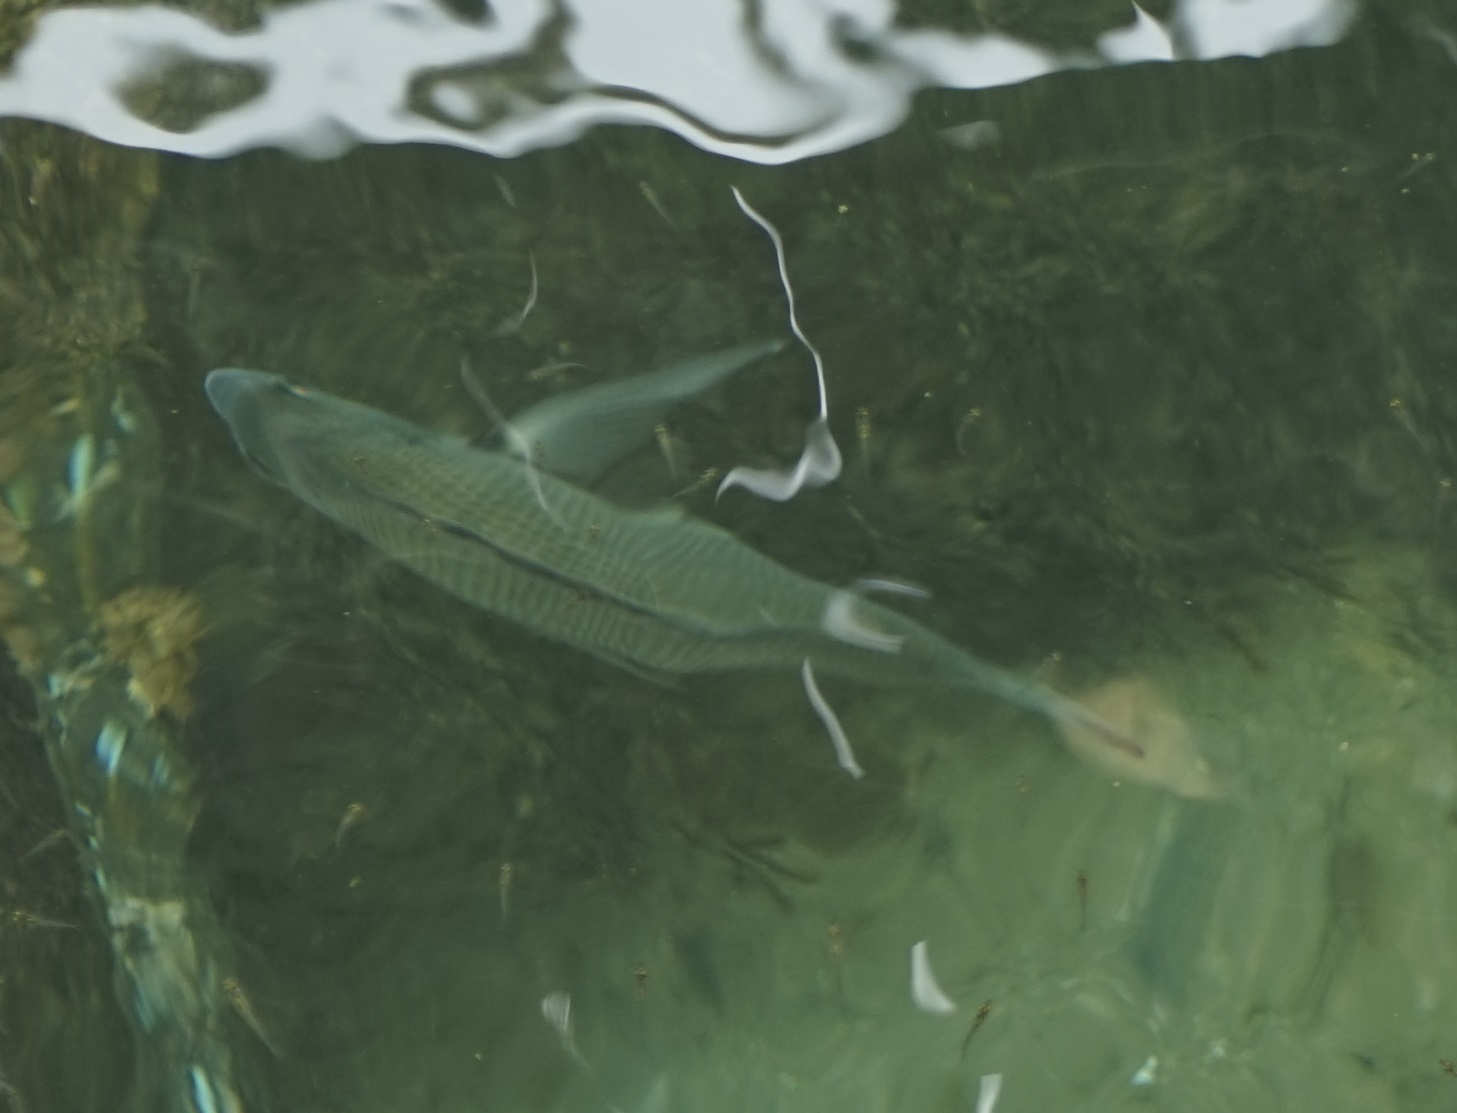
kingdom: Animalia
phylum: Chordata
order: Perciformes
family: Sparidae
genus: Acanthopagrus
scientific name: Acanthopagrus australis
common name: Surf bream
